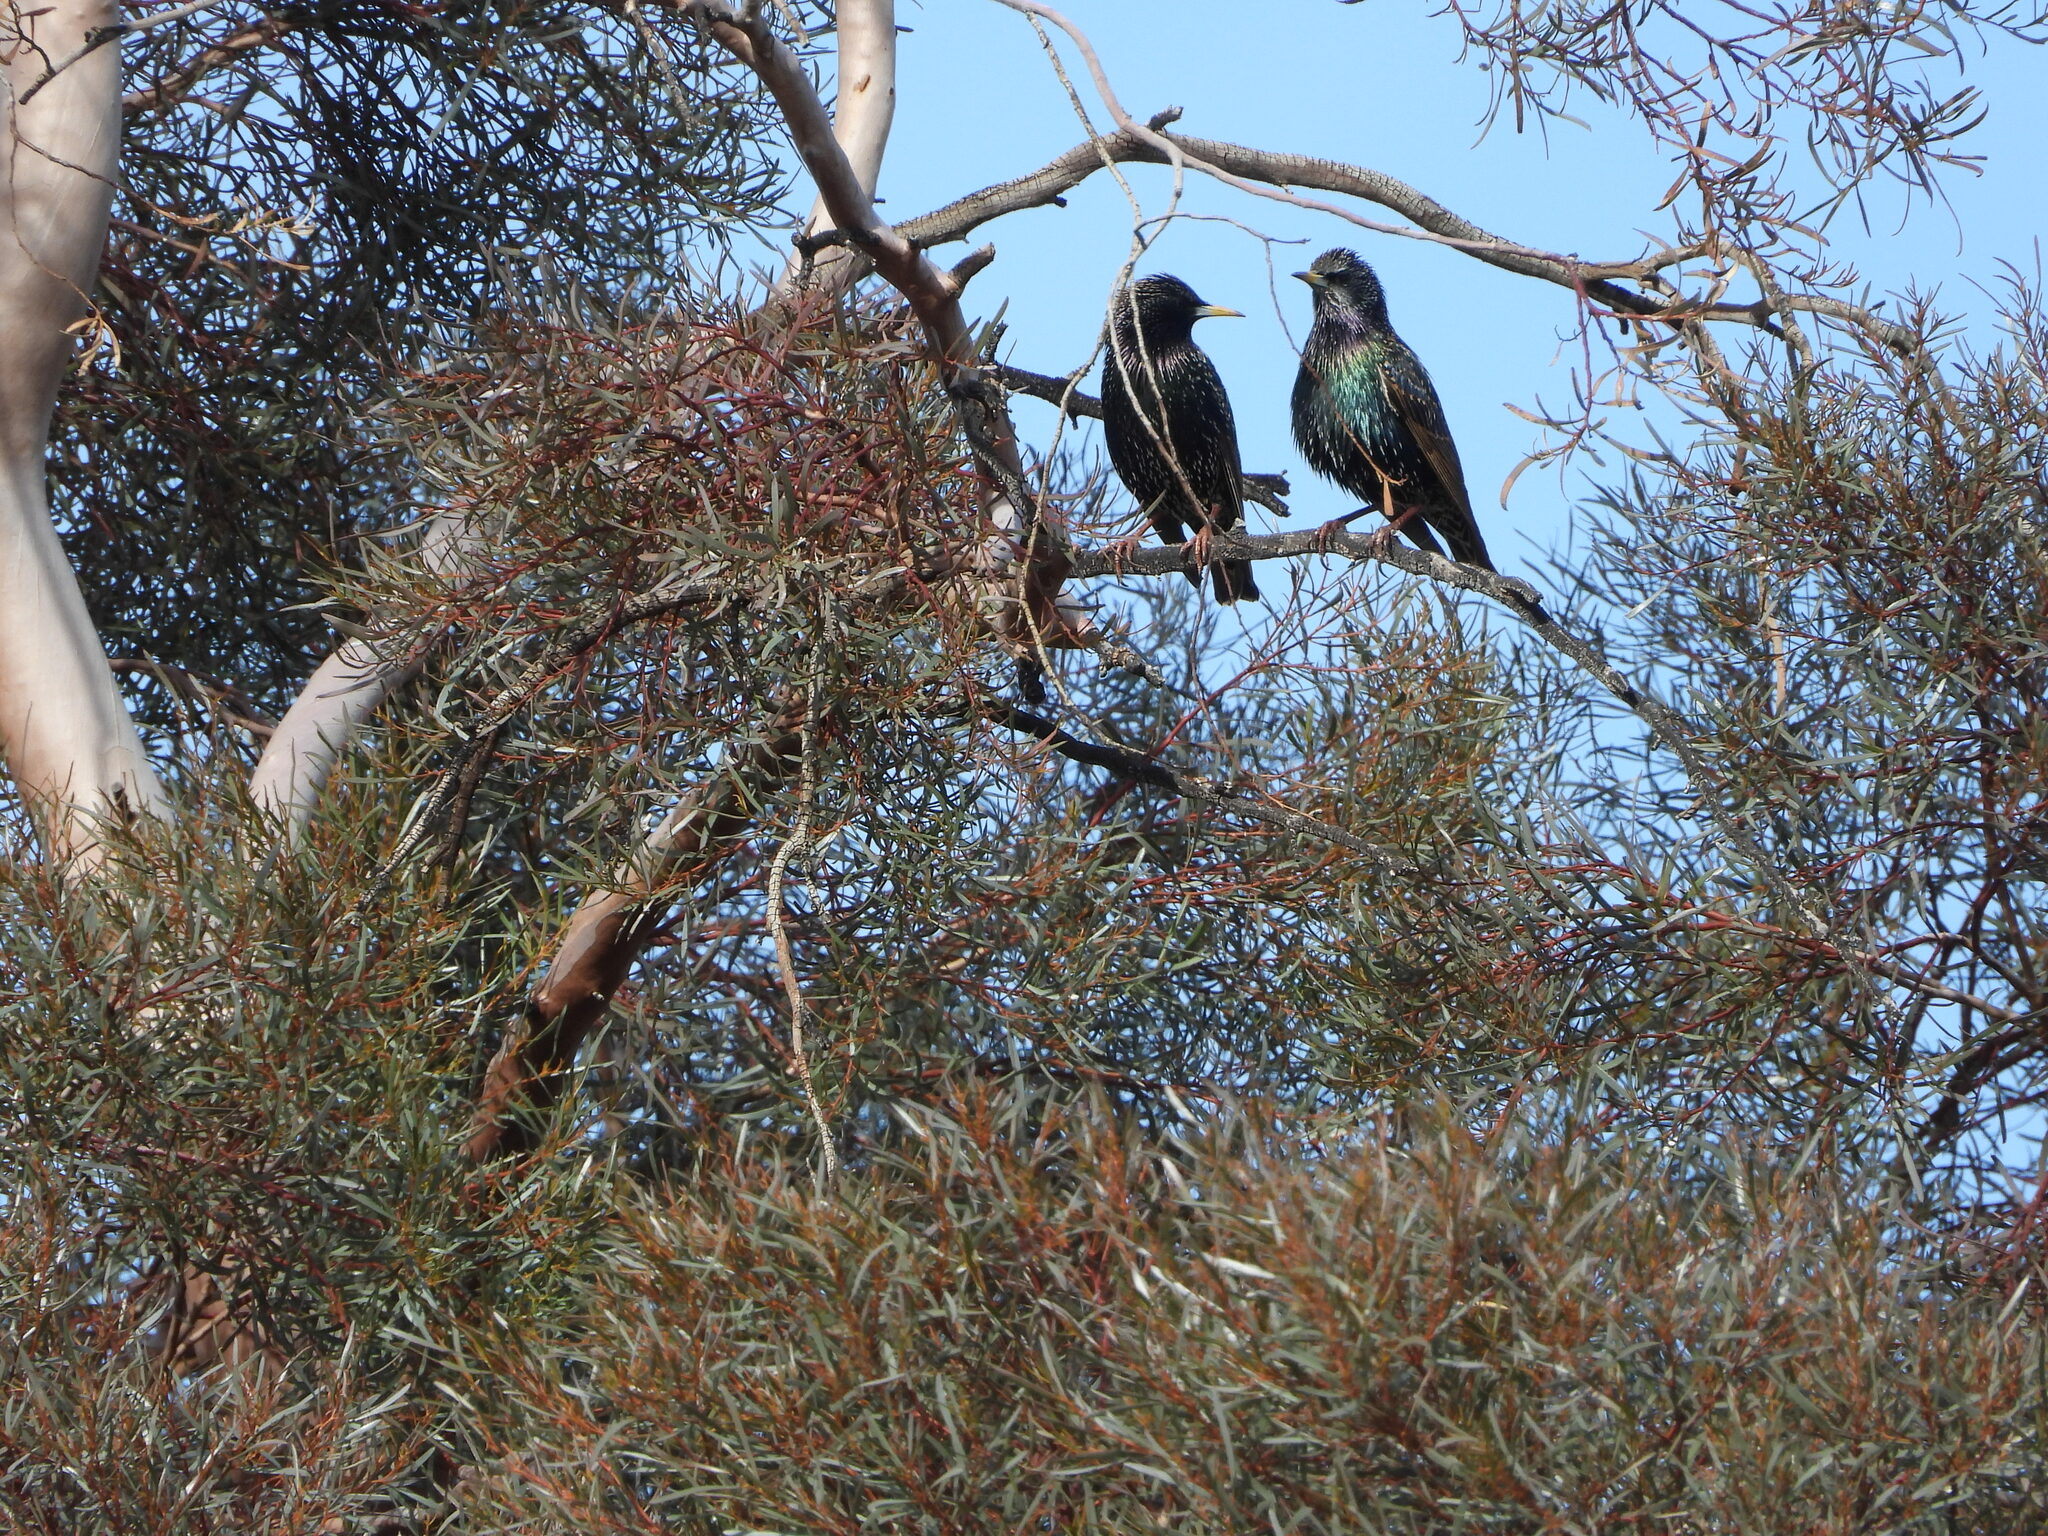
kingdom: Animalia
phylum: Chordata
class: Aves
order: Passeriformes
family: Sturnidae
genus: Sturnus
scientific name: Sturnus vulgaris
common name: Common starling
